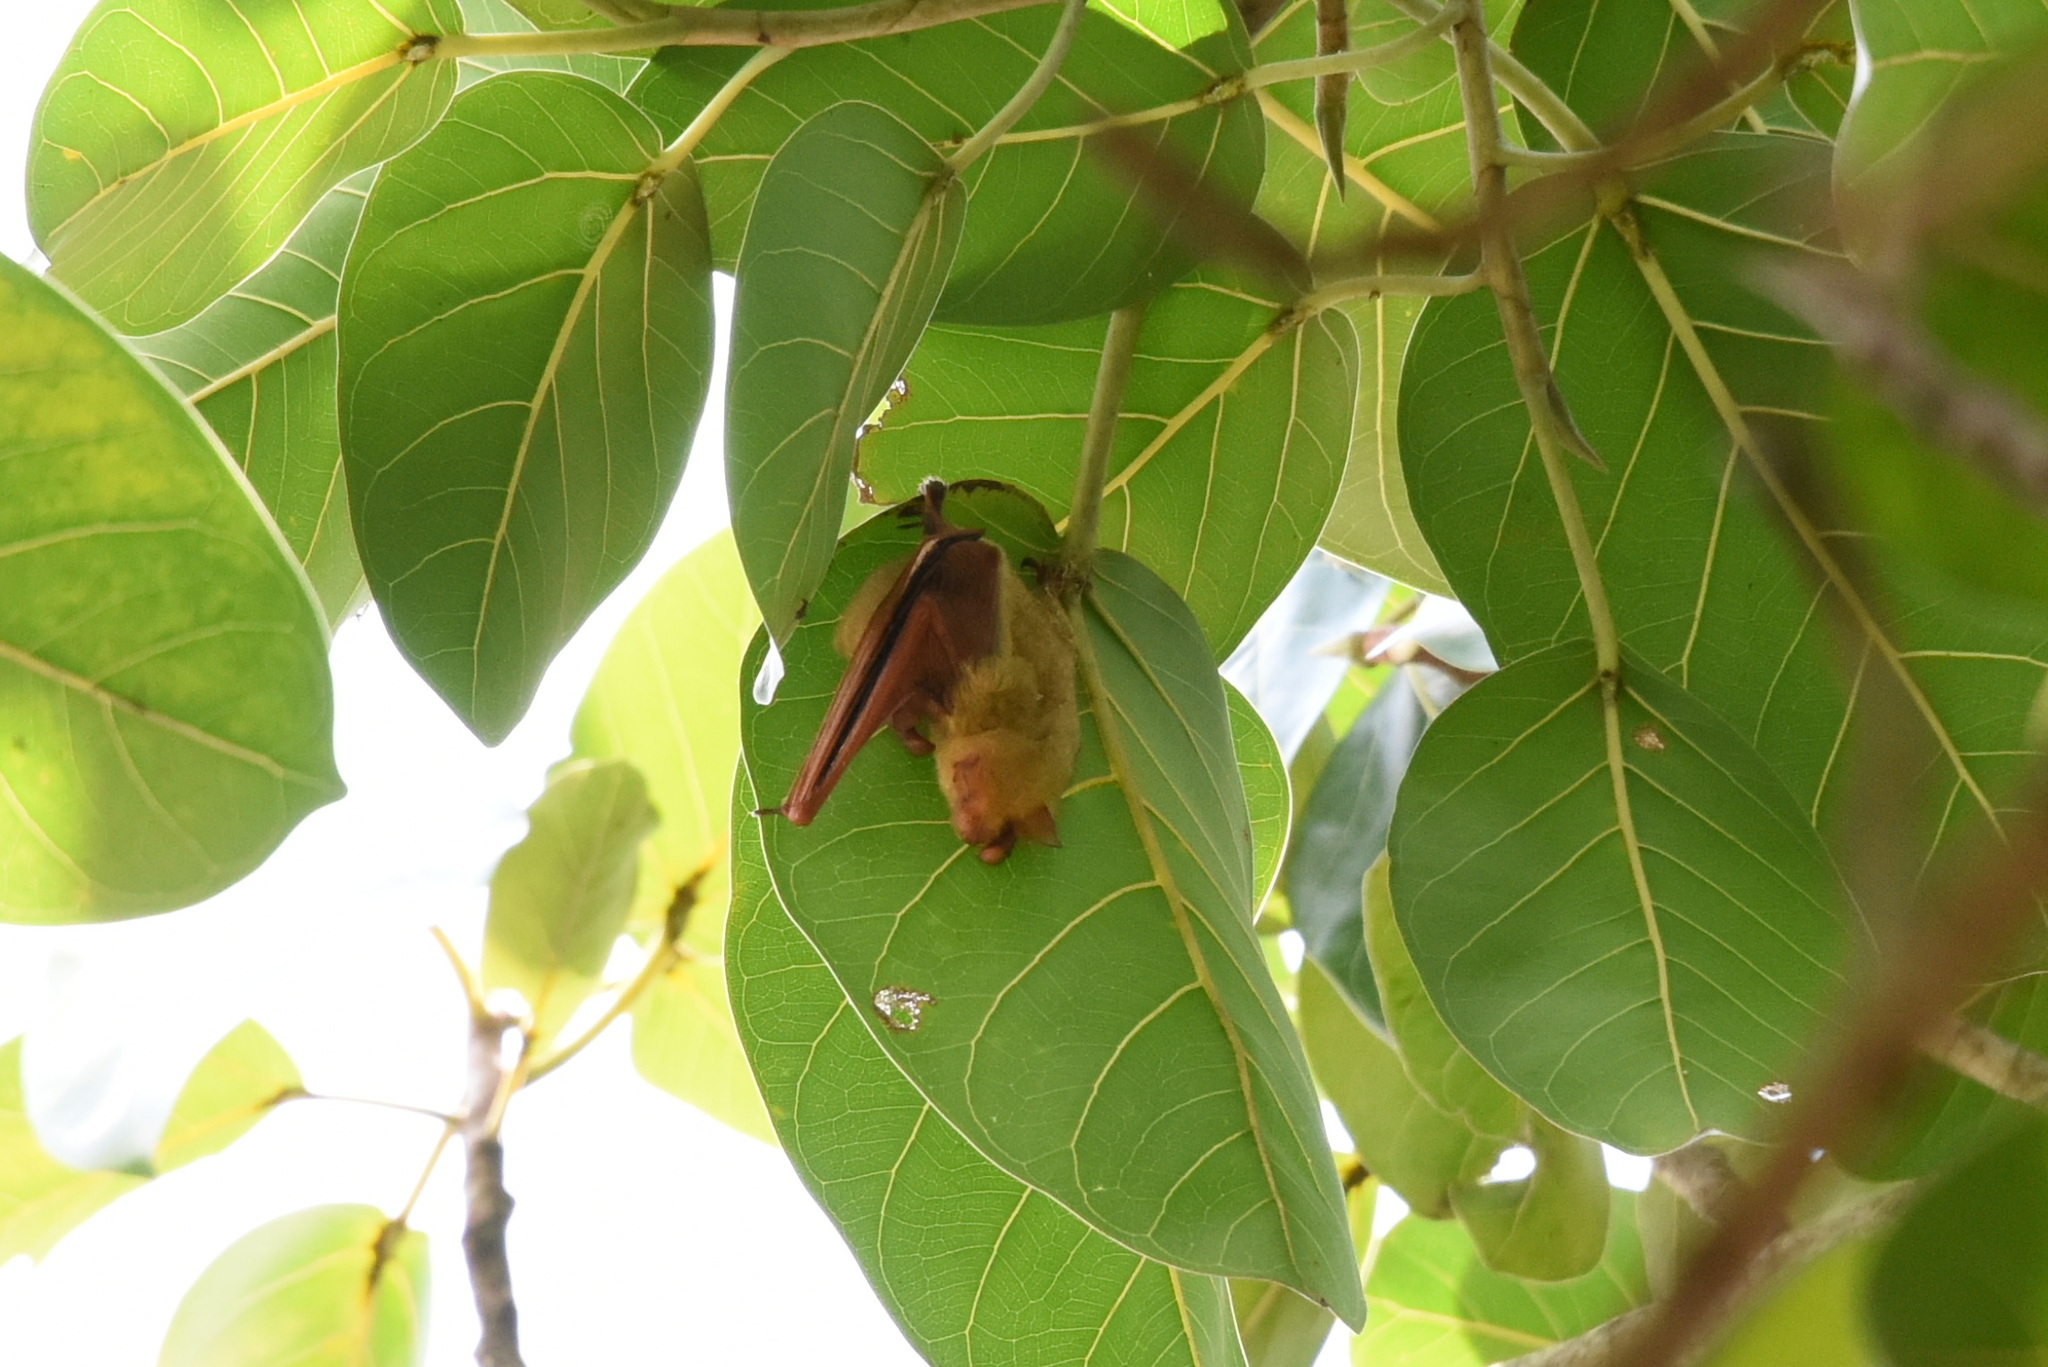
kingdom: Animalia
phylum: Chordata
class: Mammalia
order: Chiroptera
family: Vespertilionidae
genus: Myotis
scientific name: Myotis formosus
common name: Hodgson's myotis
